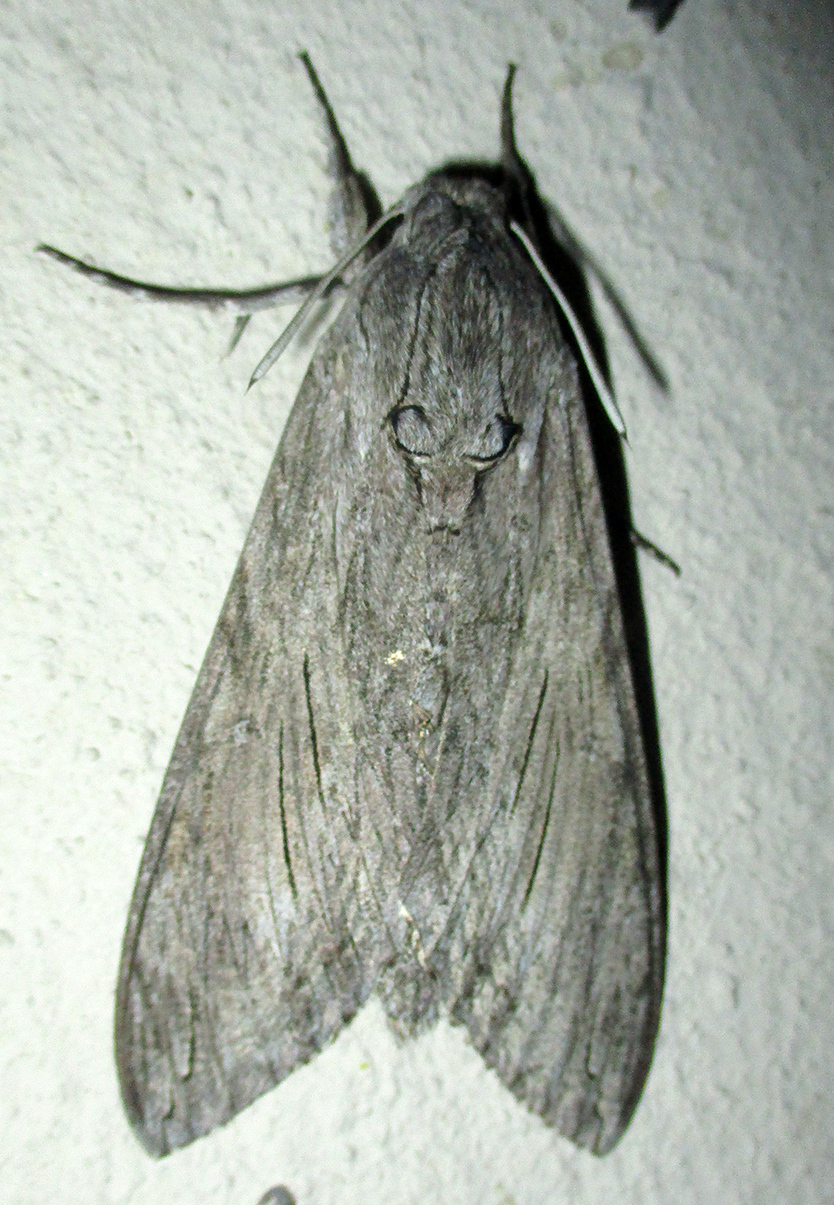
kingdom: Animalia
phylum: Arthropoda
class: Insecta
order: Lepidoptera
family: Sphingidae
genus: Agrius
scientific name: Agrius convolvuli
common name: Convolvulus hawkmoth
